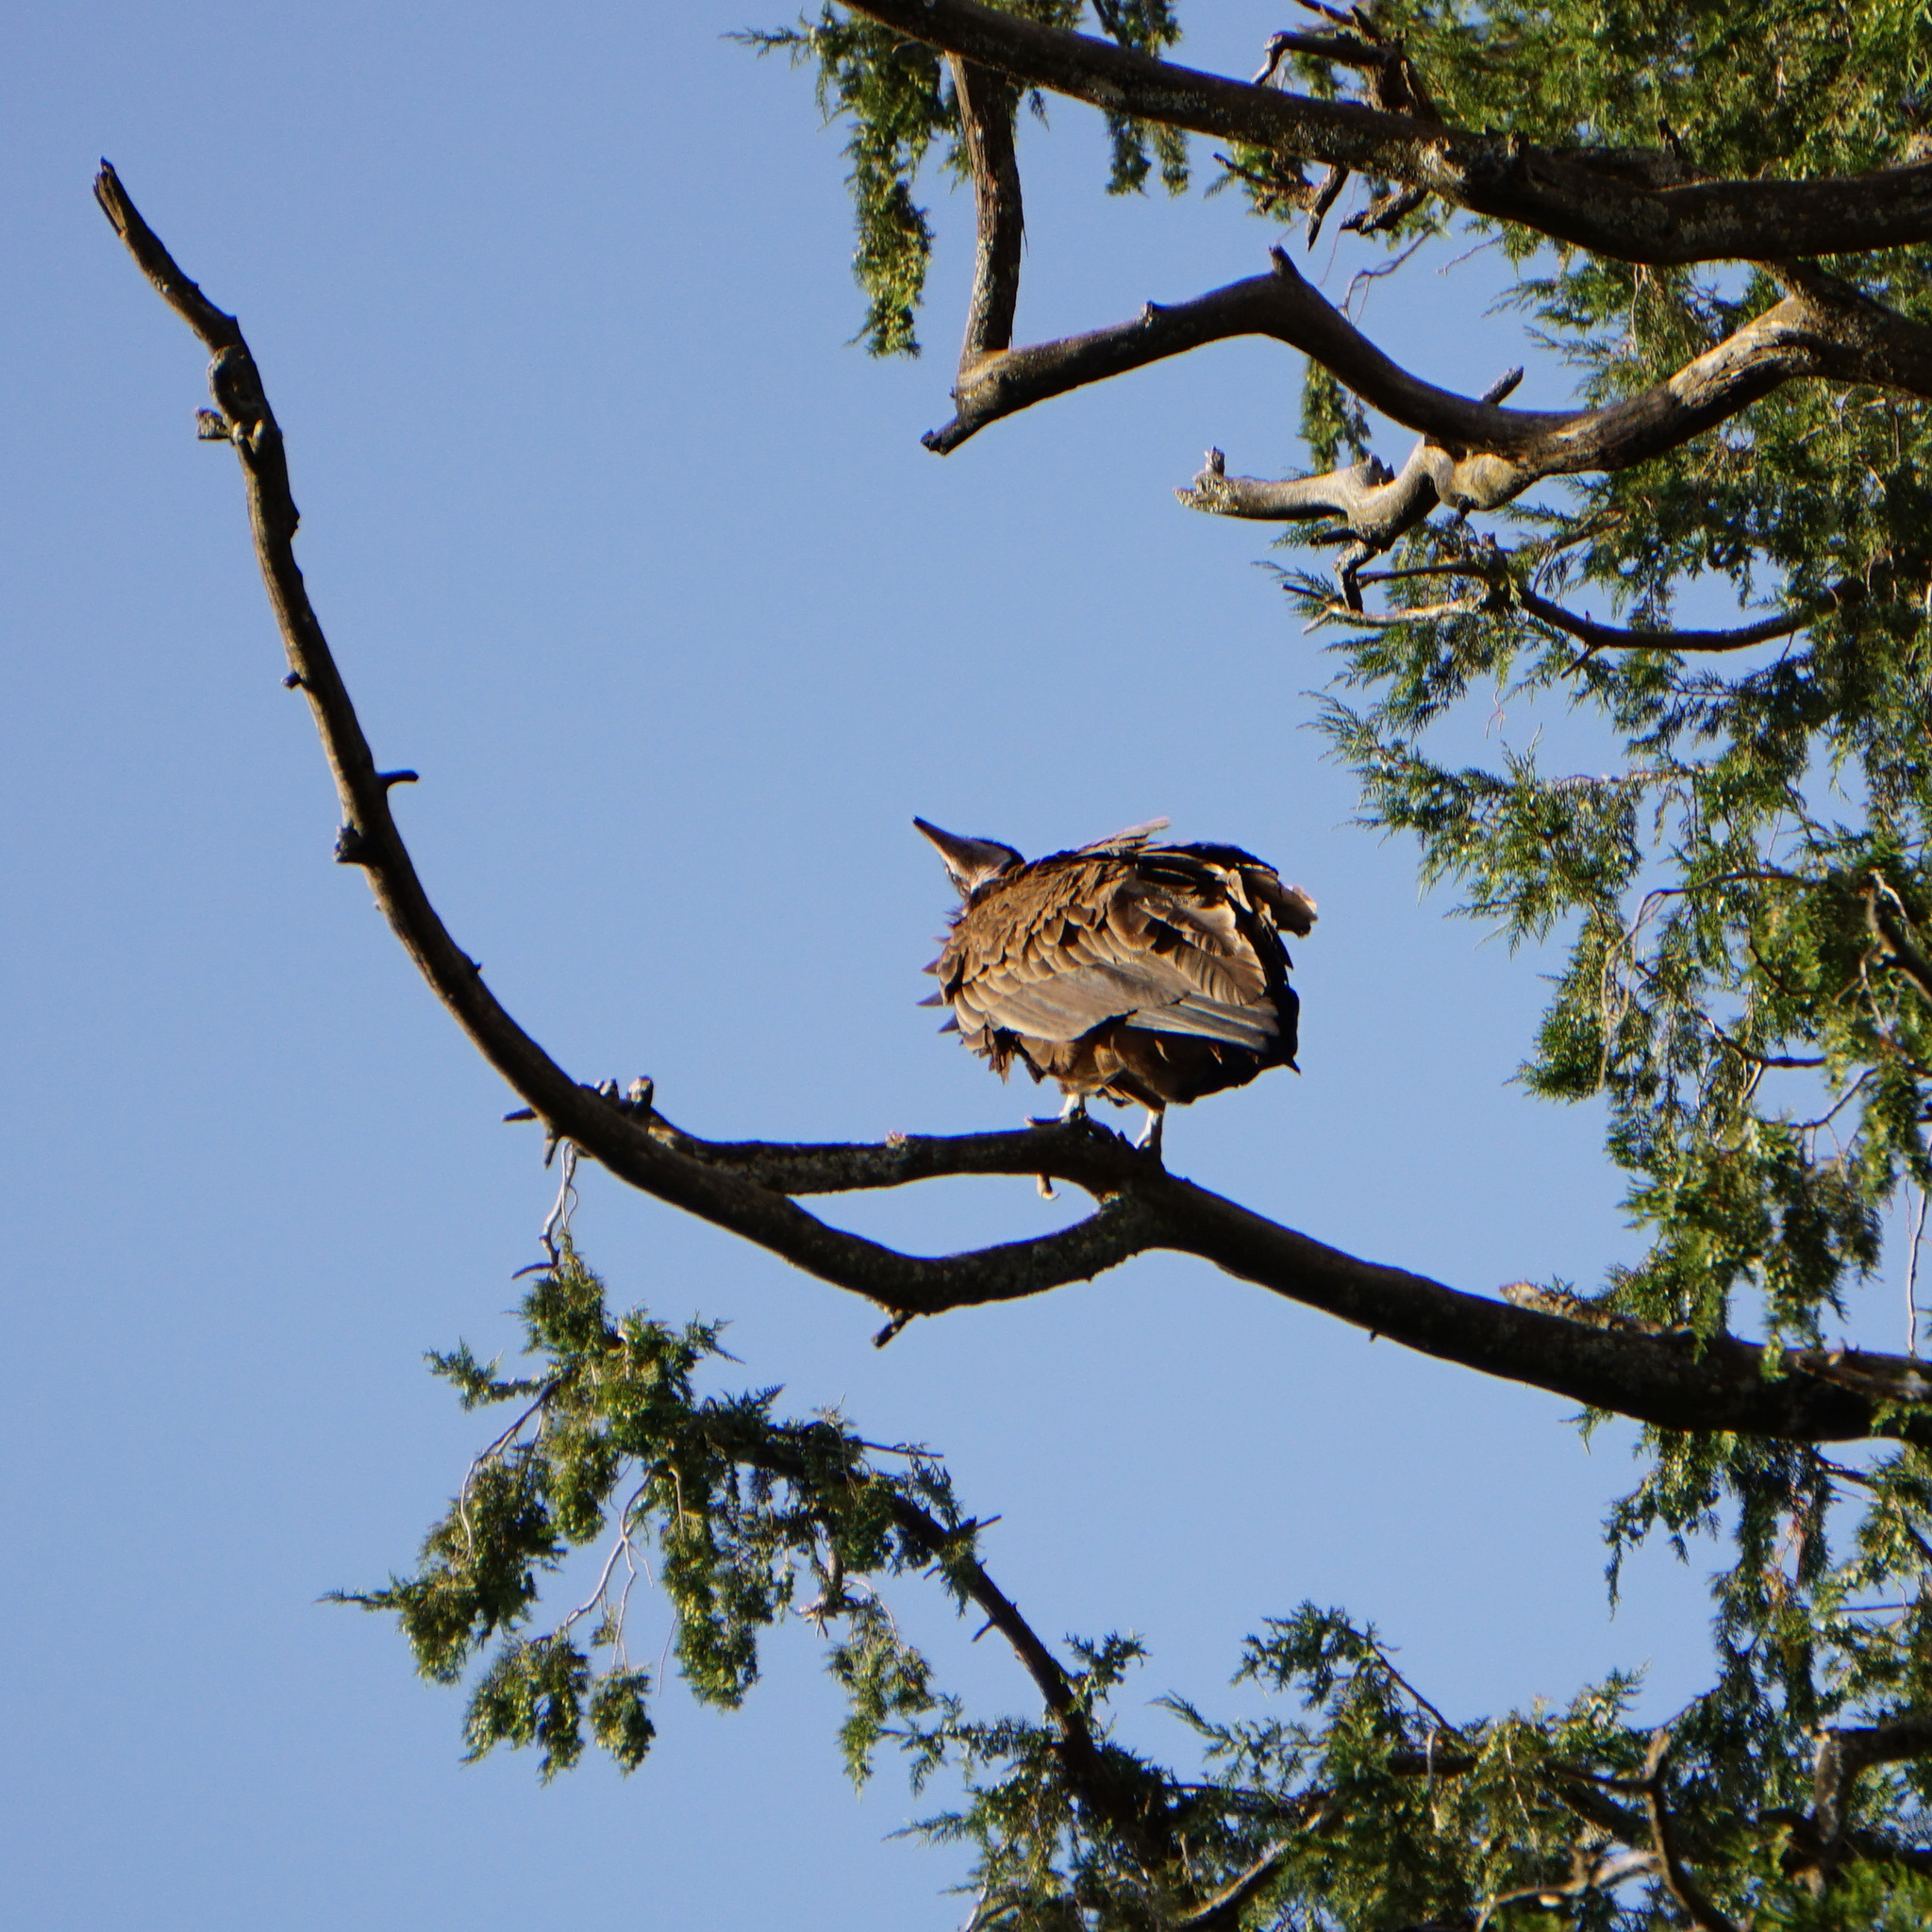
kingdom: Animalia
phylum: Chordata
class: Aves
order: Accipitriformes
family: Accipitridae
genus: Necrosyrtes
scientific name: Necrosyrtes monachus
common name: Hooded vulture
